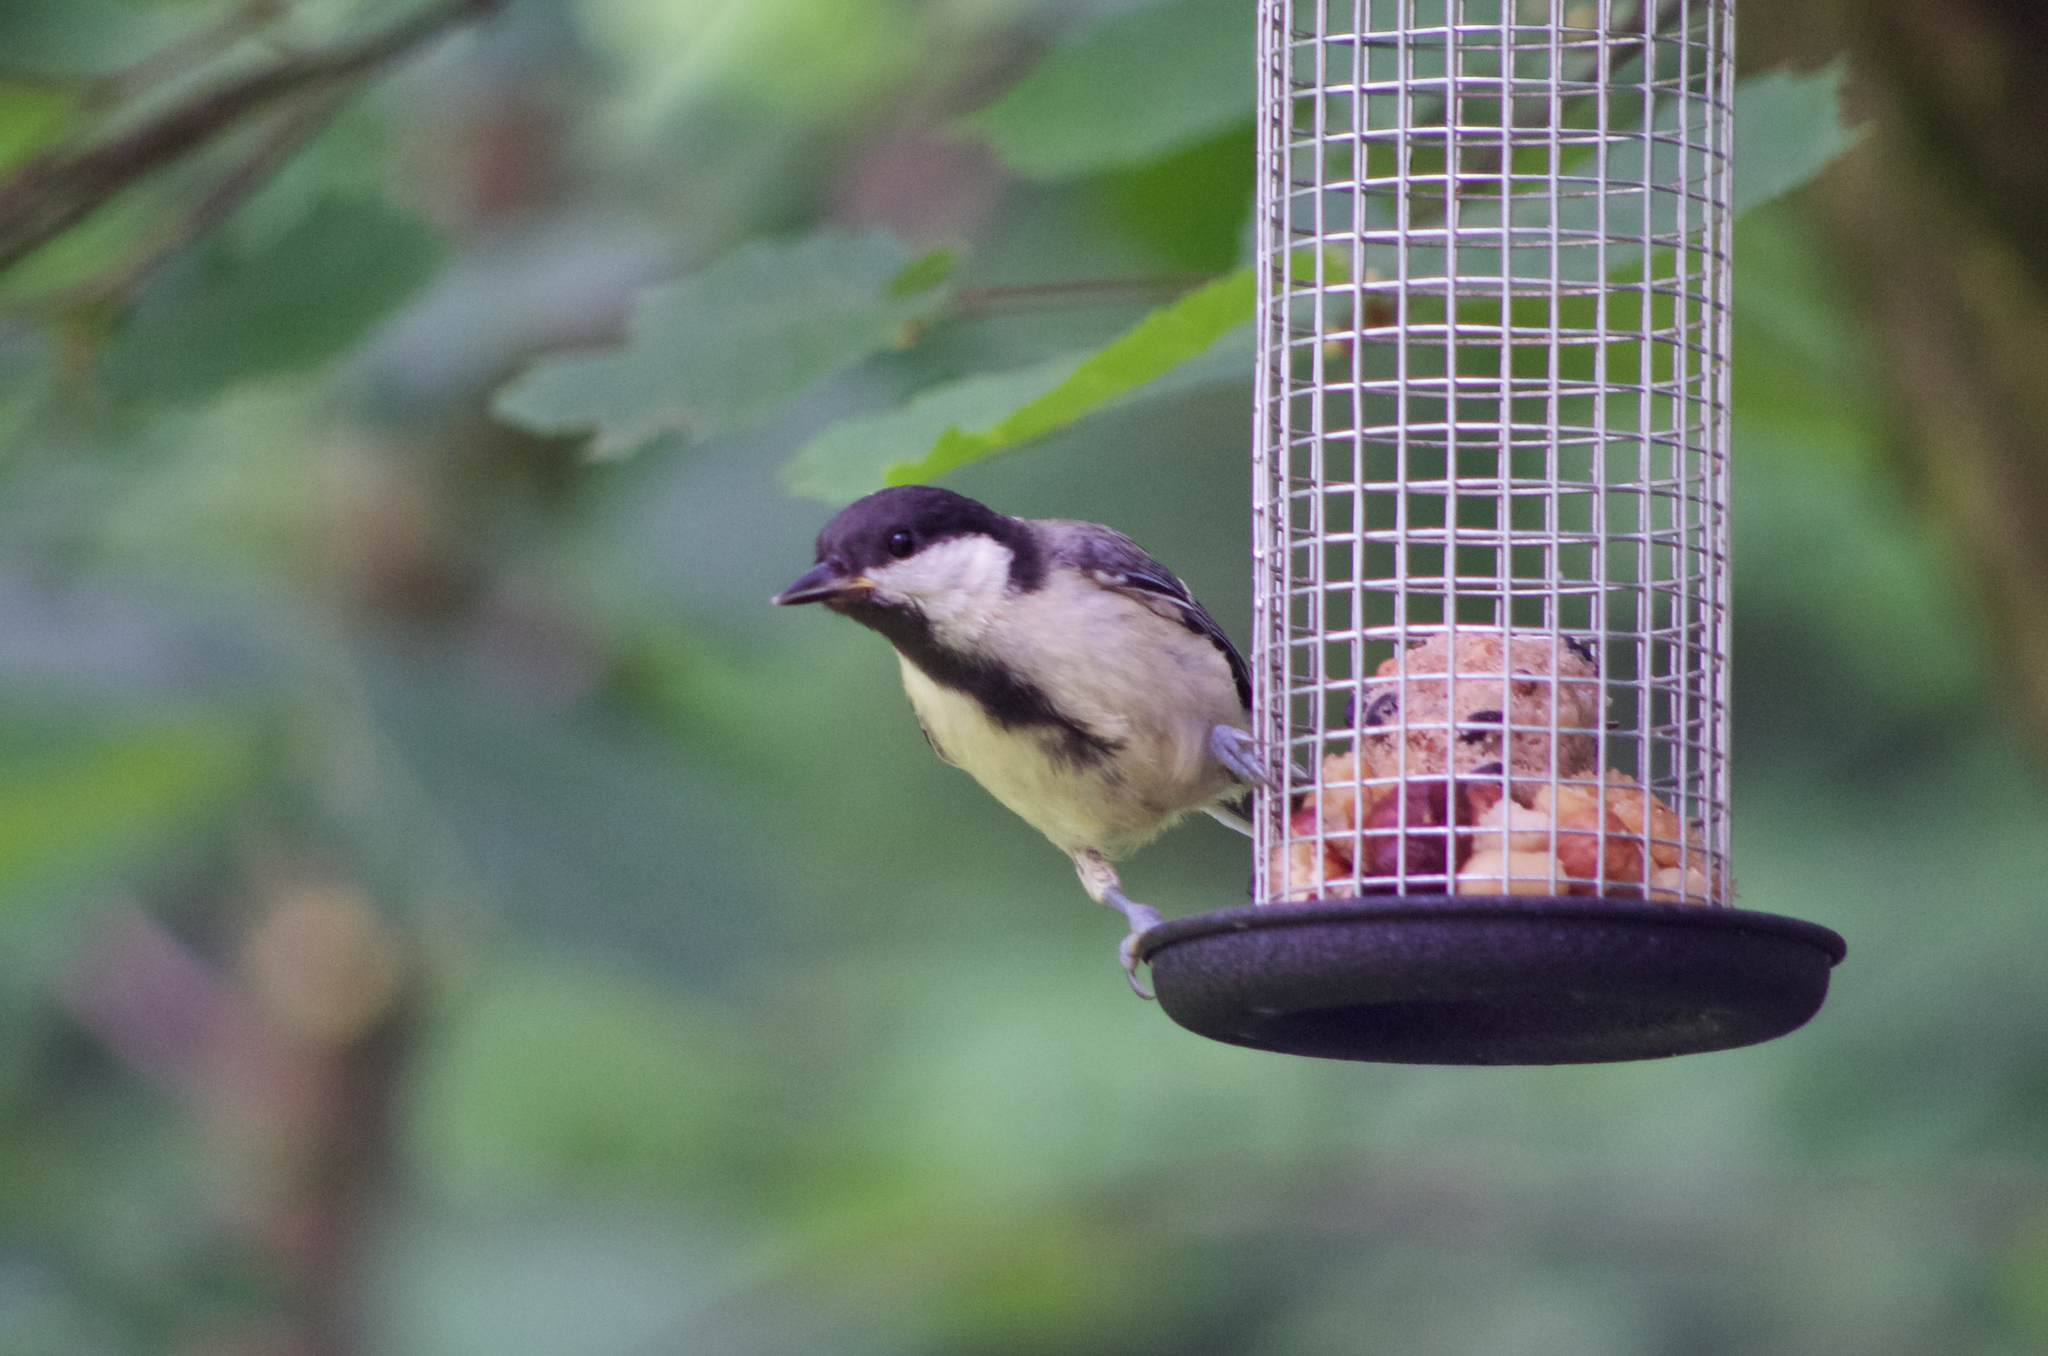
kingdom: Animalia
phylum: Chordata
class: Aves
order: Passeriformes
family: Paridae
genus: Parus
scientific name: Parus major
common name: Great tit
